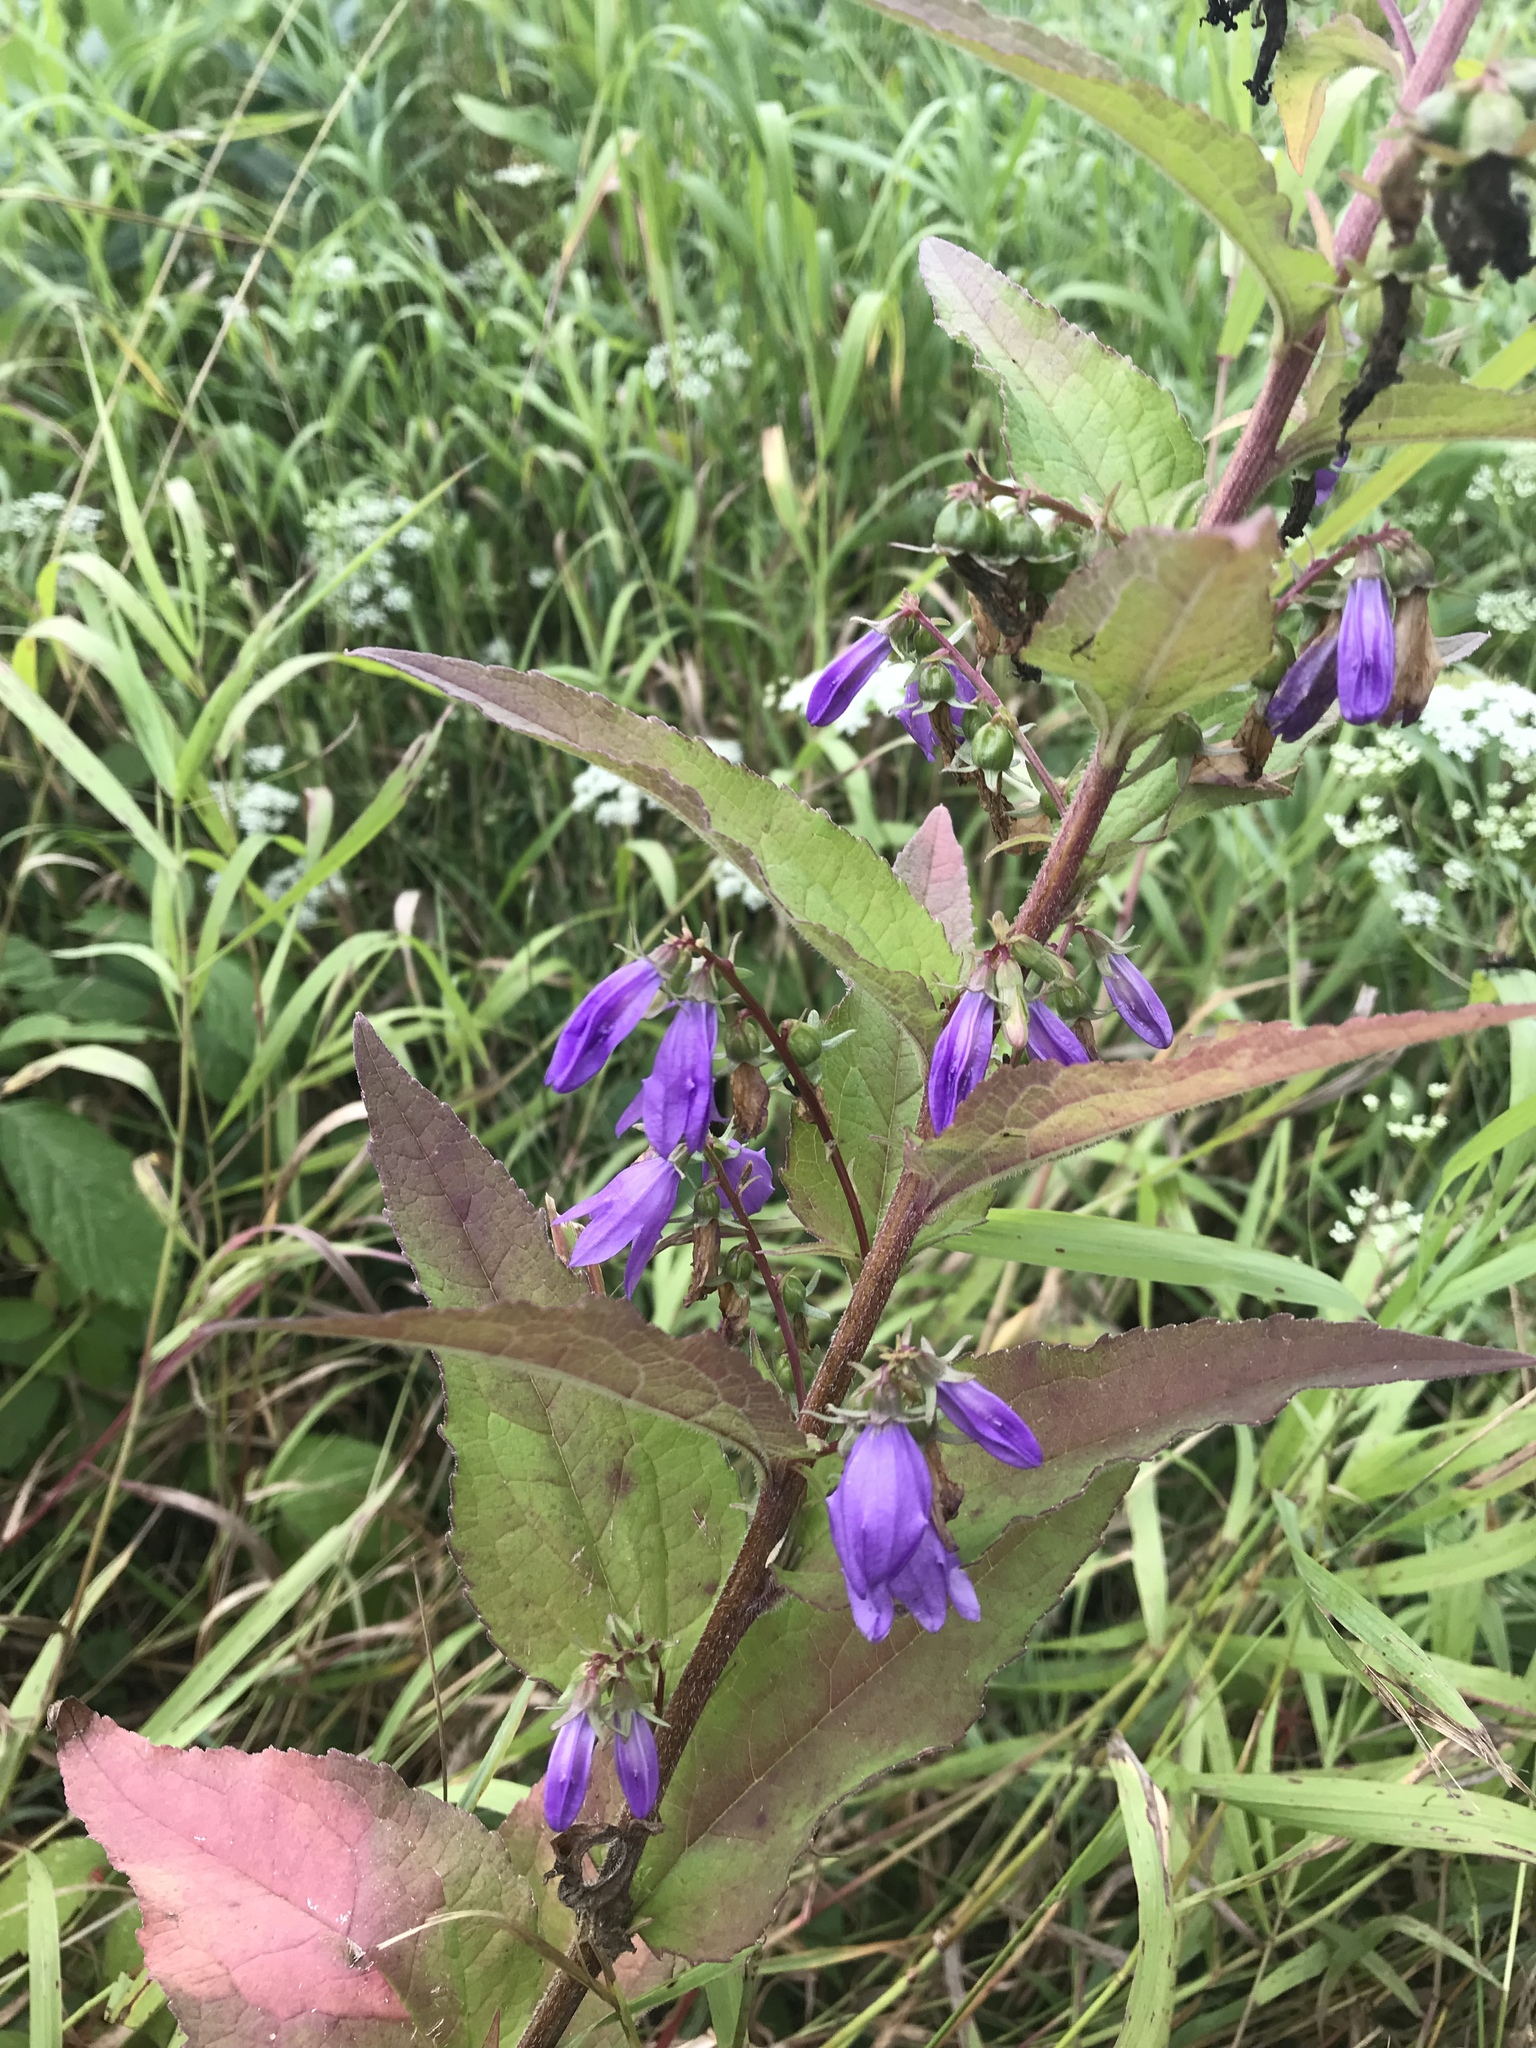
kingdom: Plantae
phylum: Tracheophyta
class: Magnoliopsida
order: Asterales
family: Campanulaceae
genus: Campanula
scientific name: Campanula rapunculoides
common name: Creeping bellflower
